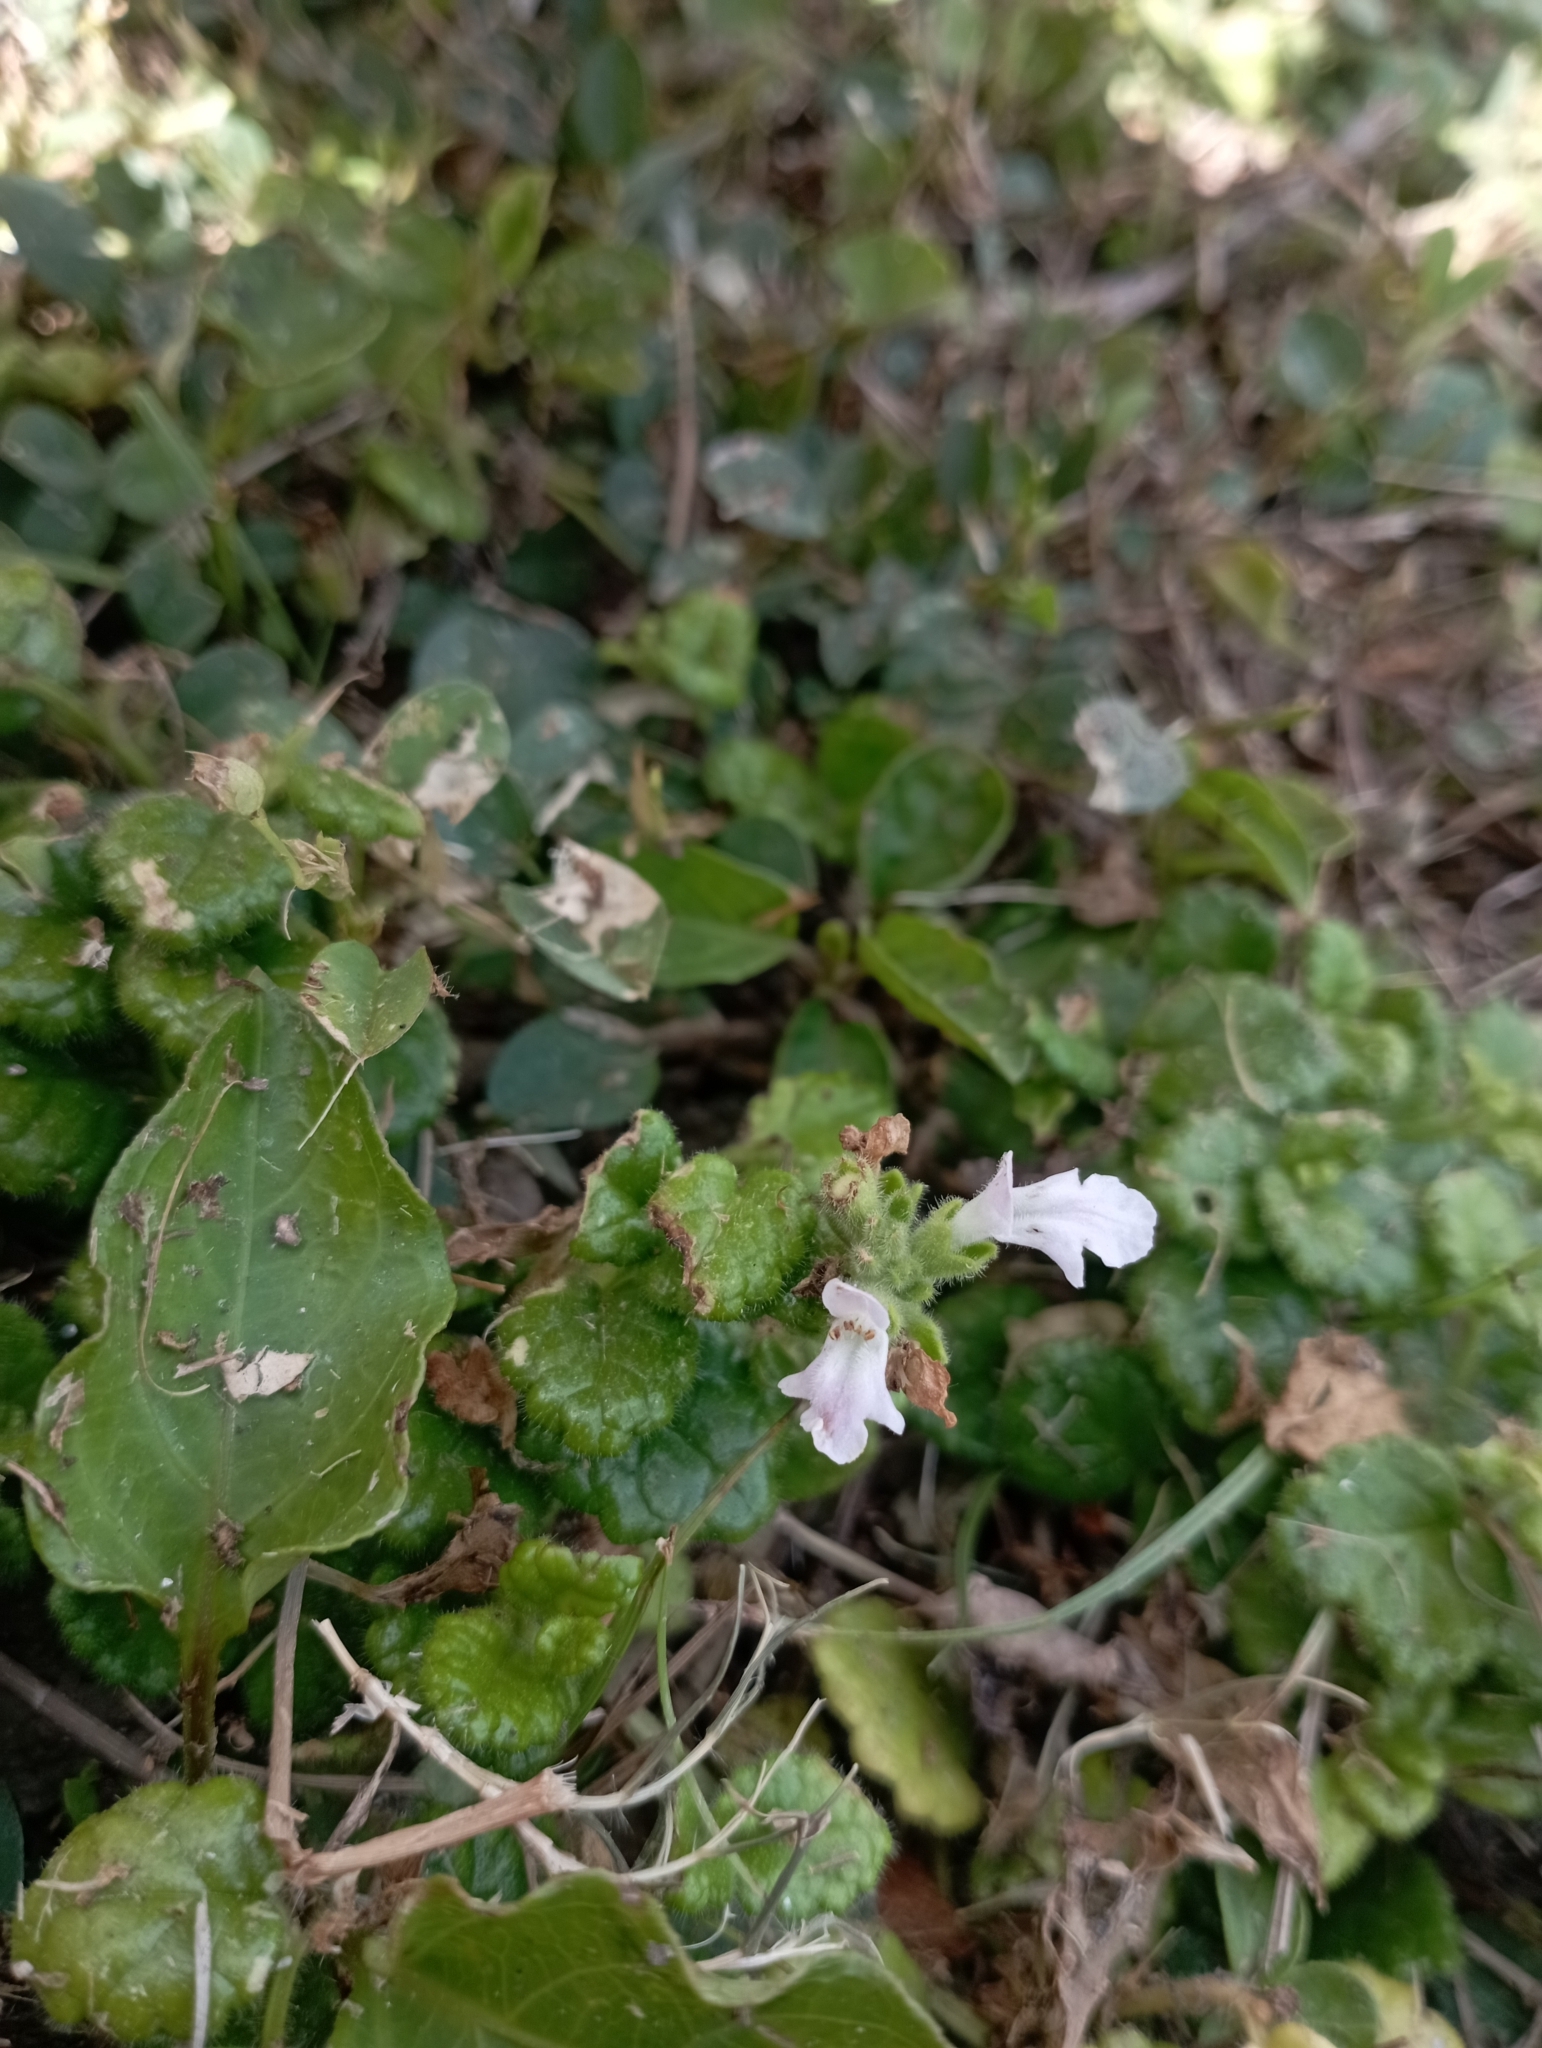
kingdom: Plantae
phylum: Tracheophyta
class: Magnoliopsida
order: Lamiales
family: Lamiaceae
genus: Suzukia
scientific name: Suzukia luchuensis
